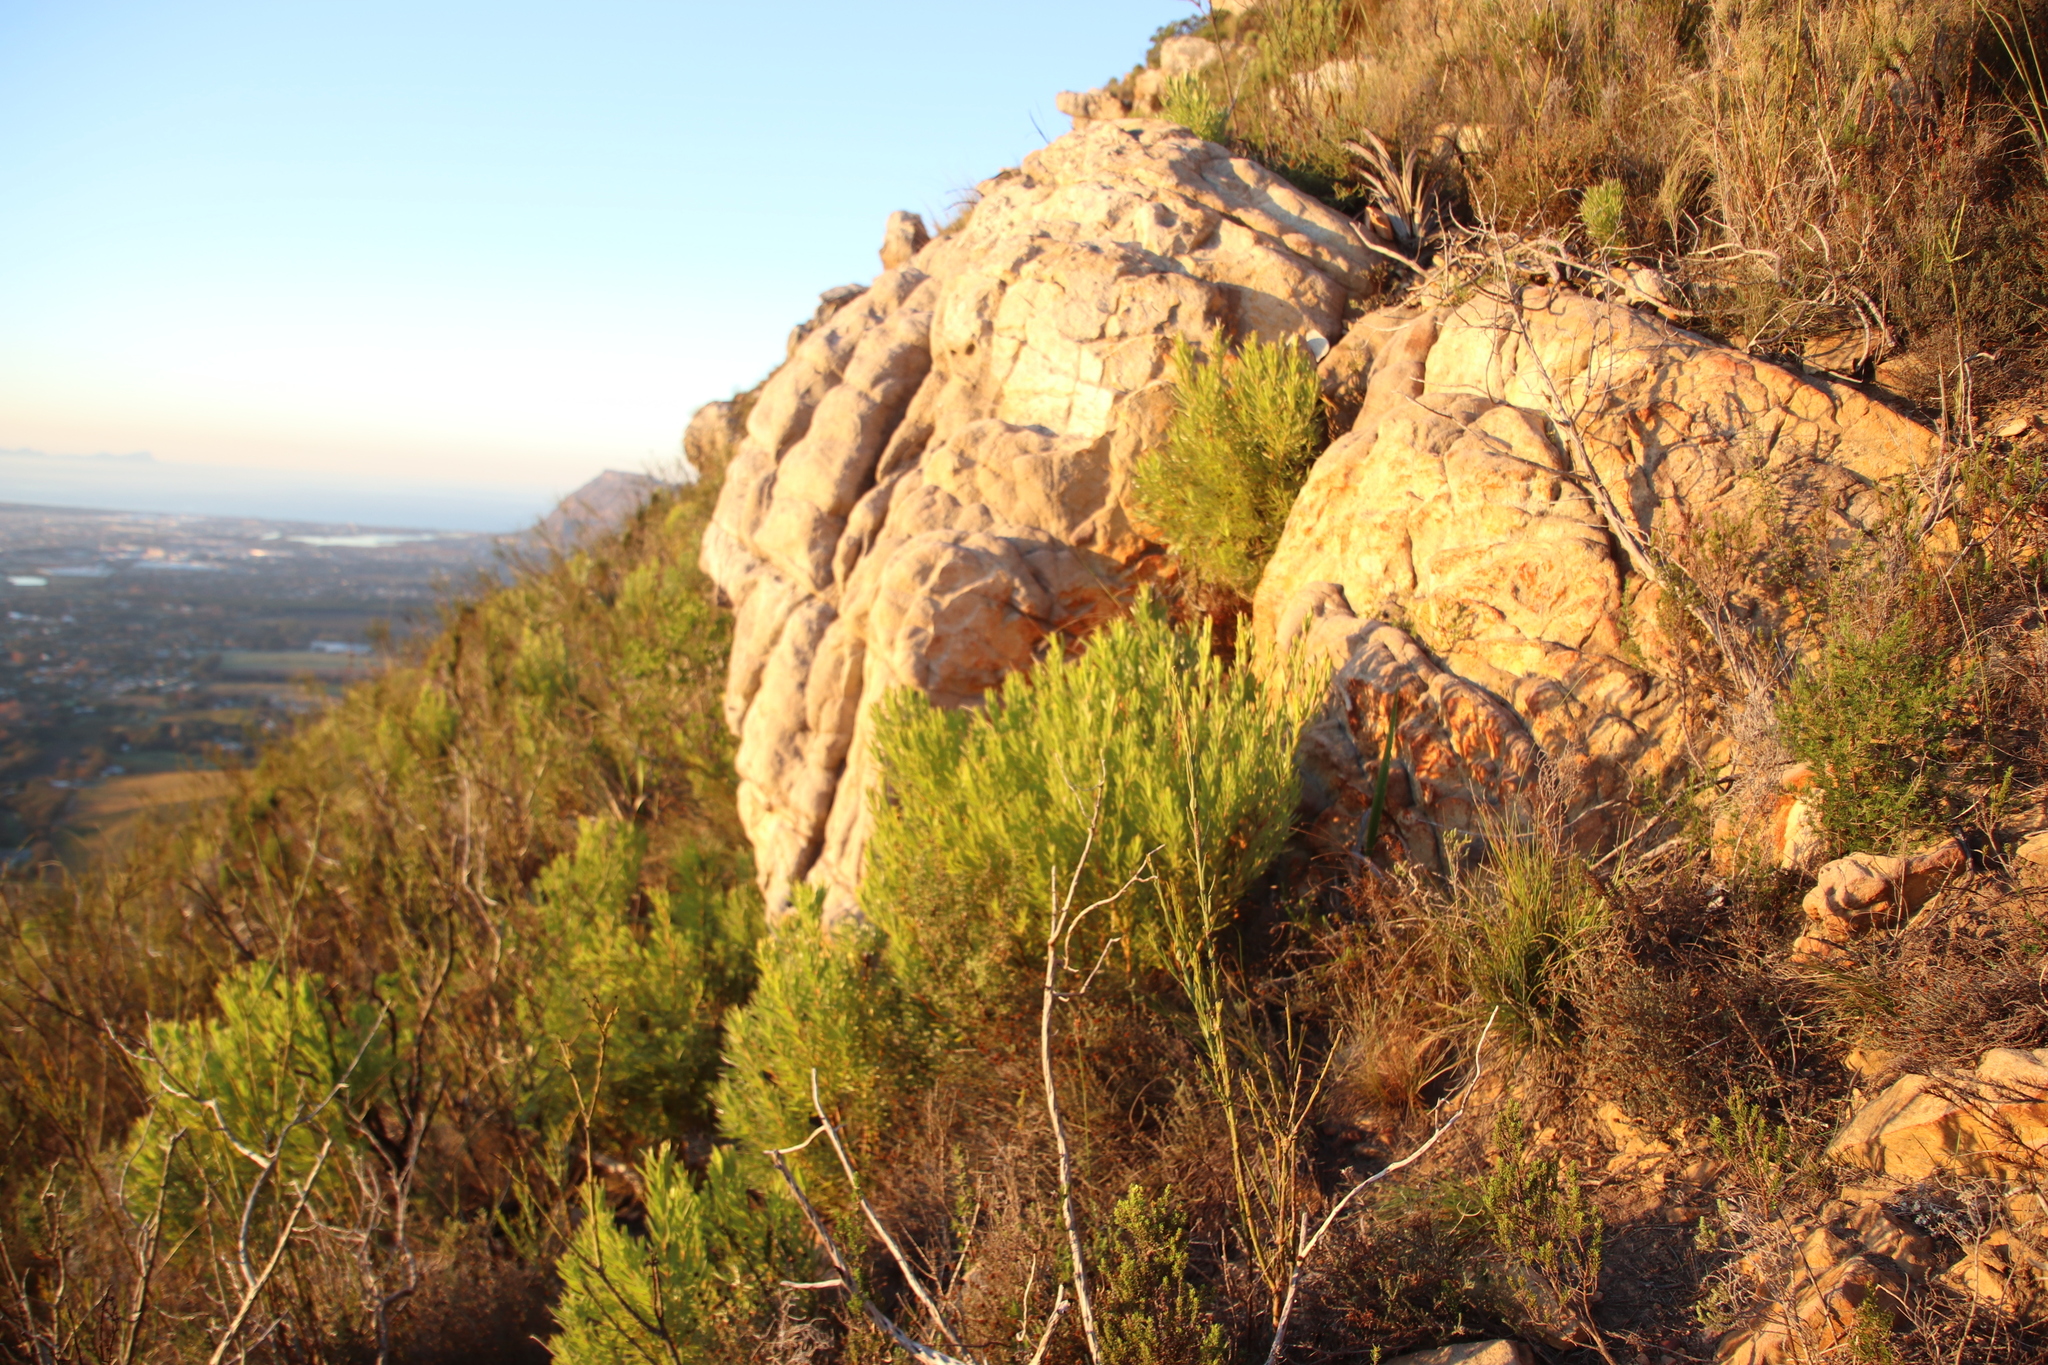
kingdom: Plantae
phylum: Tracheophyta
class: Magnoliopsida
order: Proteales
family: Proteaceae
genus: Leucadendron
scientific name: Leucadendron xanthoconus
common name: Sickle-leaf conebush
